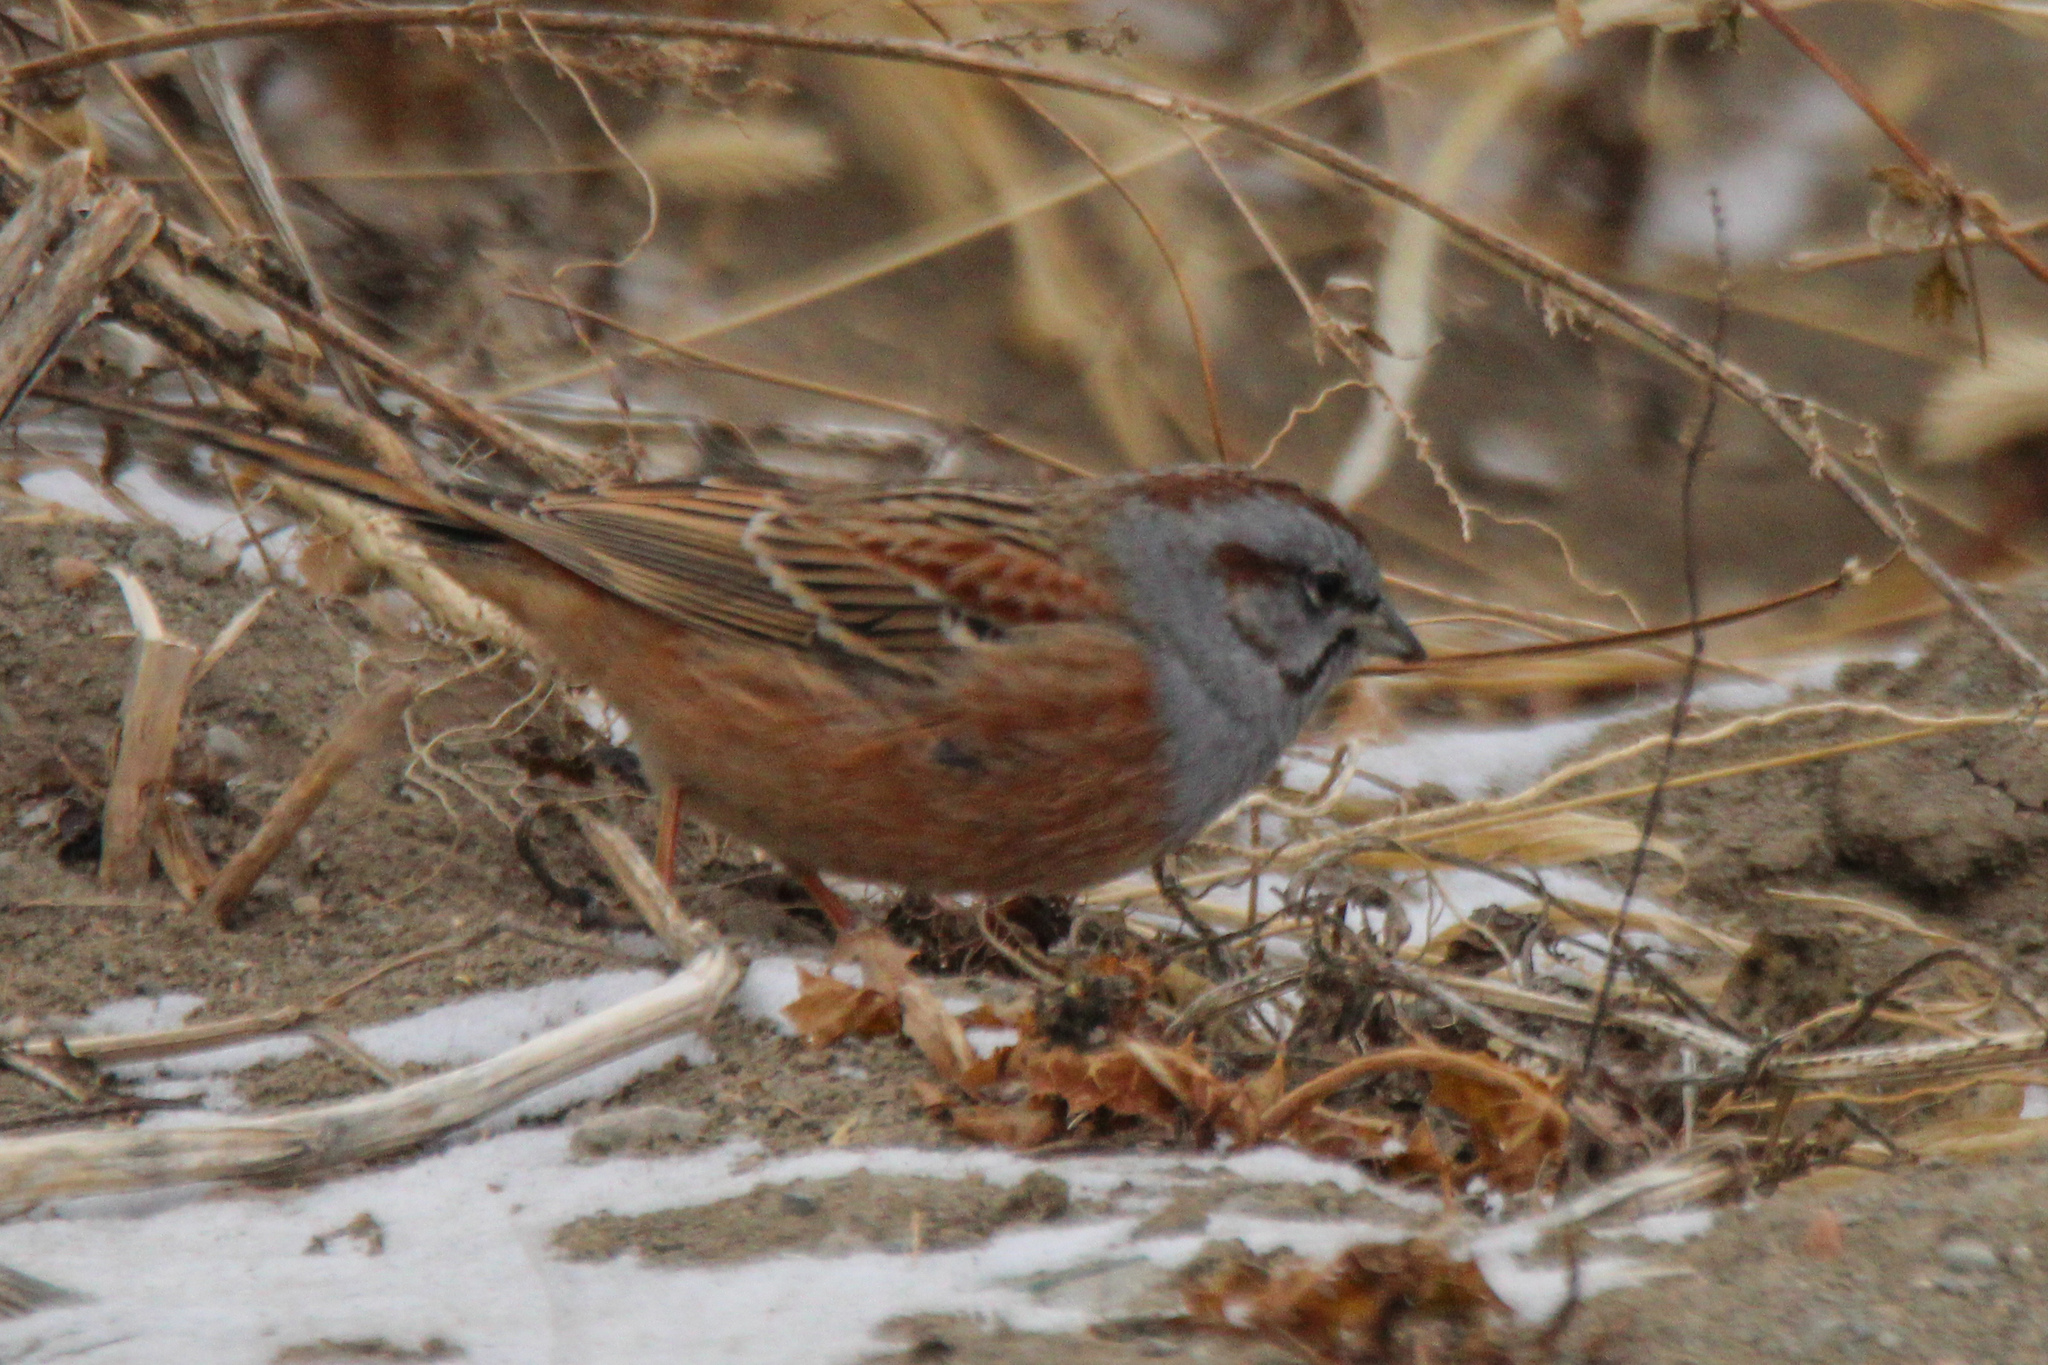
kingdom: Animalia
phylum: Chordata
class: Aves
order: Passeriformes
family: Emberizidae
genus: Emberiza
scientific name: Emberiza godlewskii
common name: Godlewski's bunting
